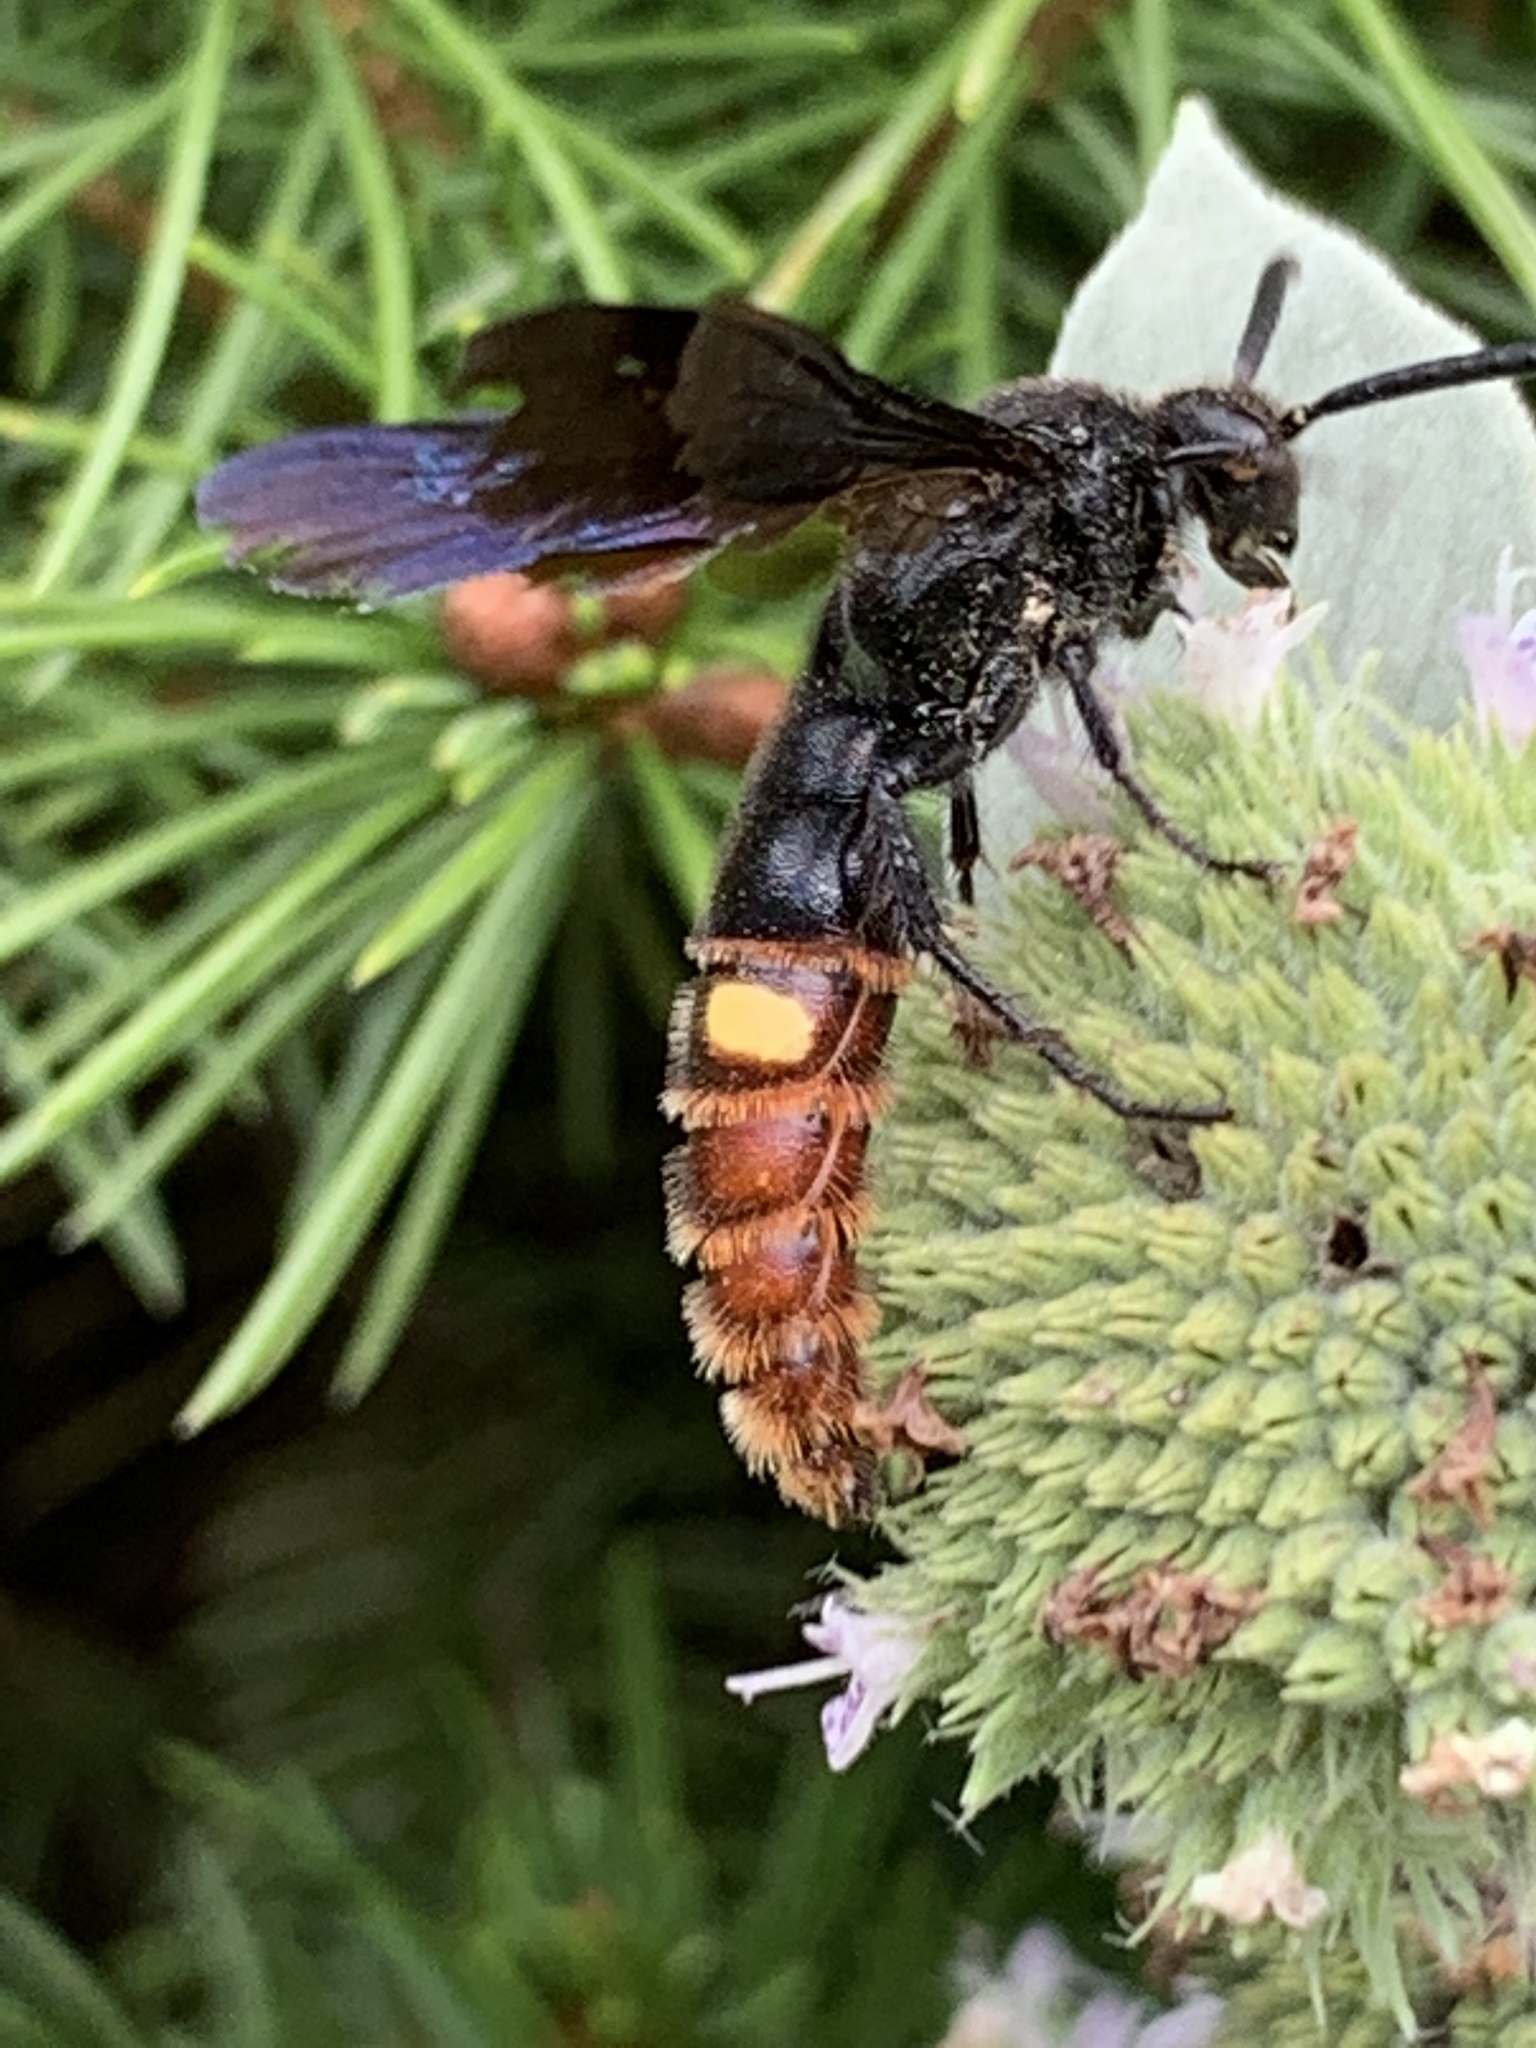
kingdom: Animalia
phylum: Arthropoda
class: Insecta
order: Hymenoptera
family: Scoliidae
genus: Scolia
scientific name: Scolia dubia
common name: Blue-winged scoliid wasp
